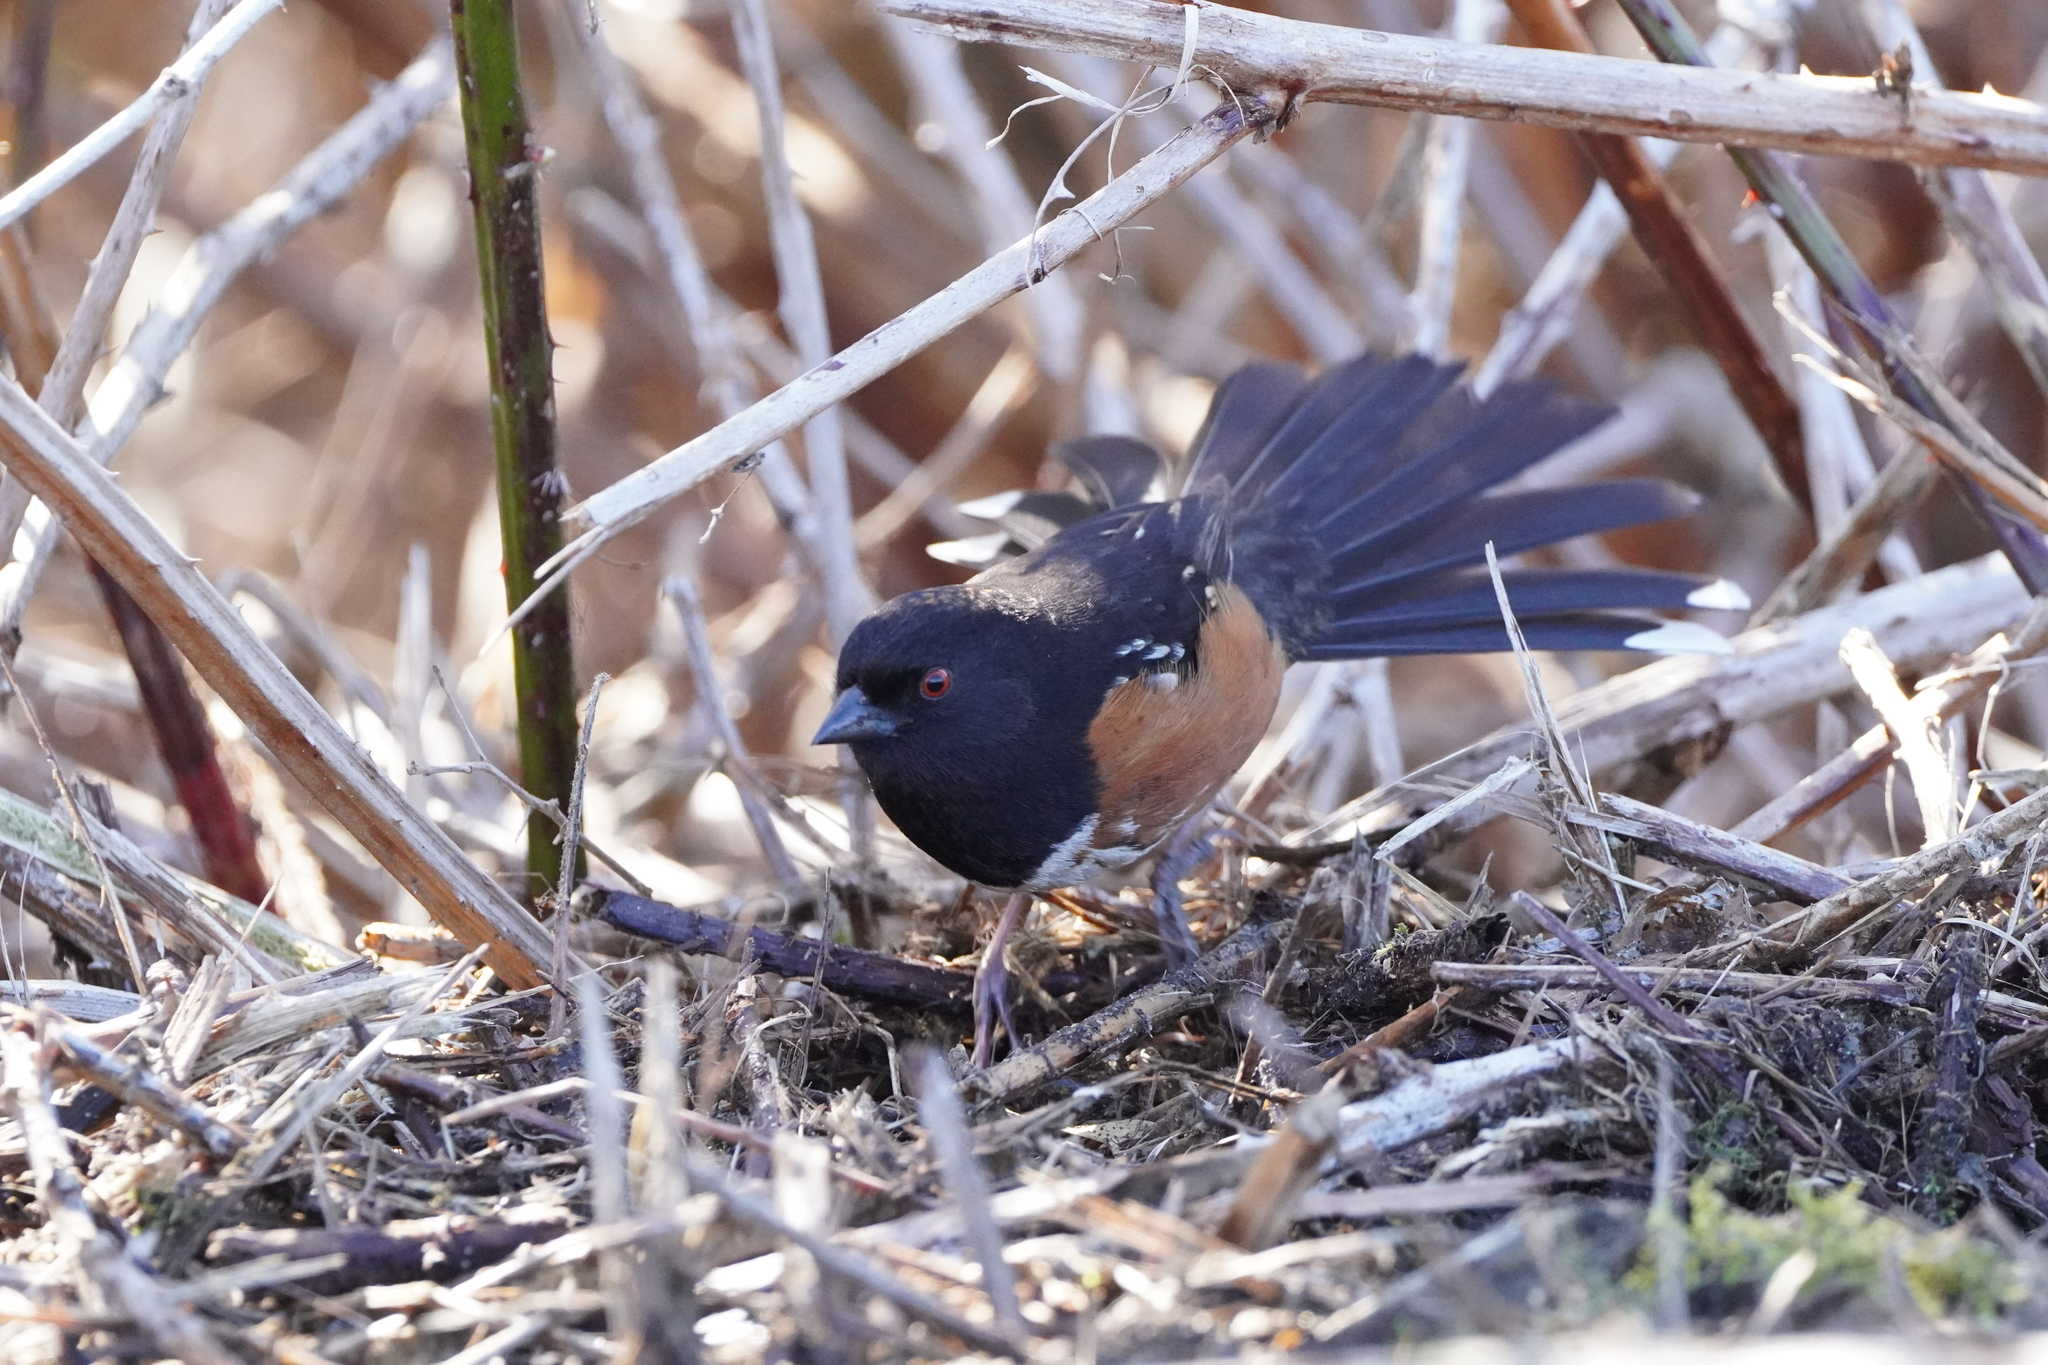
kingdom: Animalia
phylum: Chordata
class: Aves
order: Passeriformes
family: Passerellidae
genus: Pipilo
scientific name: Pipilo maculatus
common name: Spotted towhee
